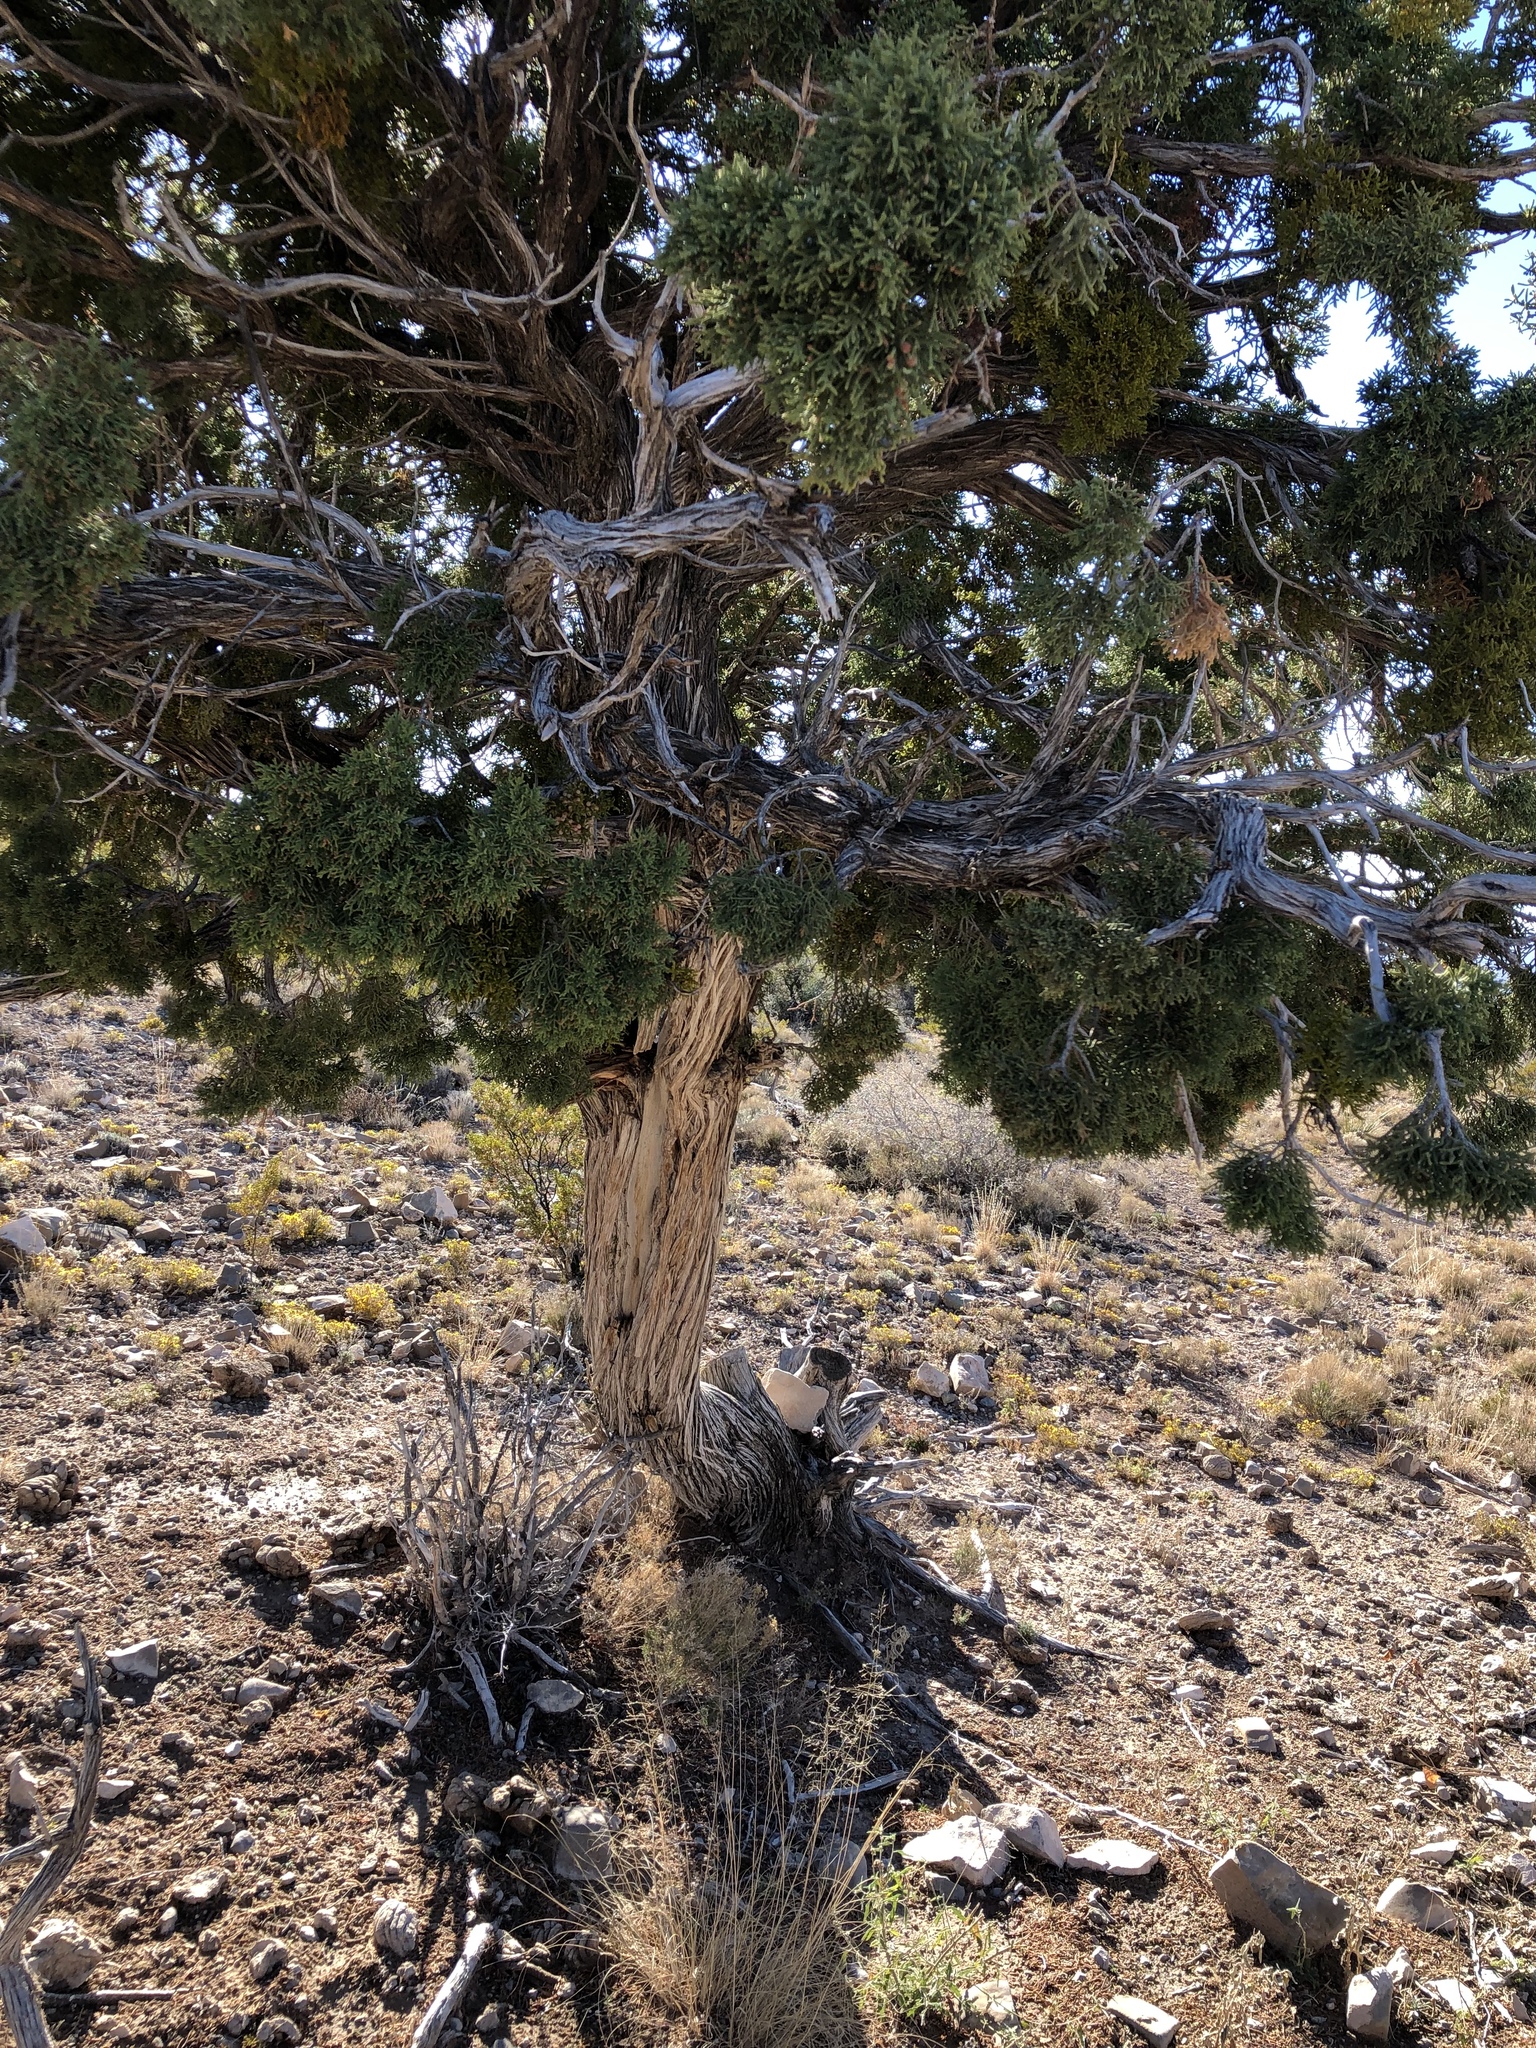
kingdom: Plantae
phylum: Tracheophyta
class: Pinopsida
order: Pinales
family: Cupressaceae
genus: Juniperus
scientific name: Juniperus monosperma
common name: One-seed juniper
